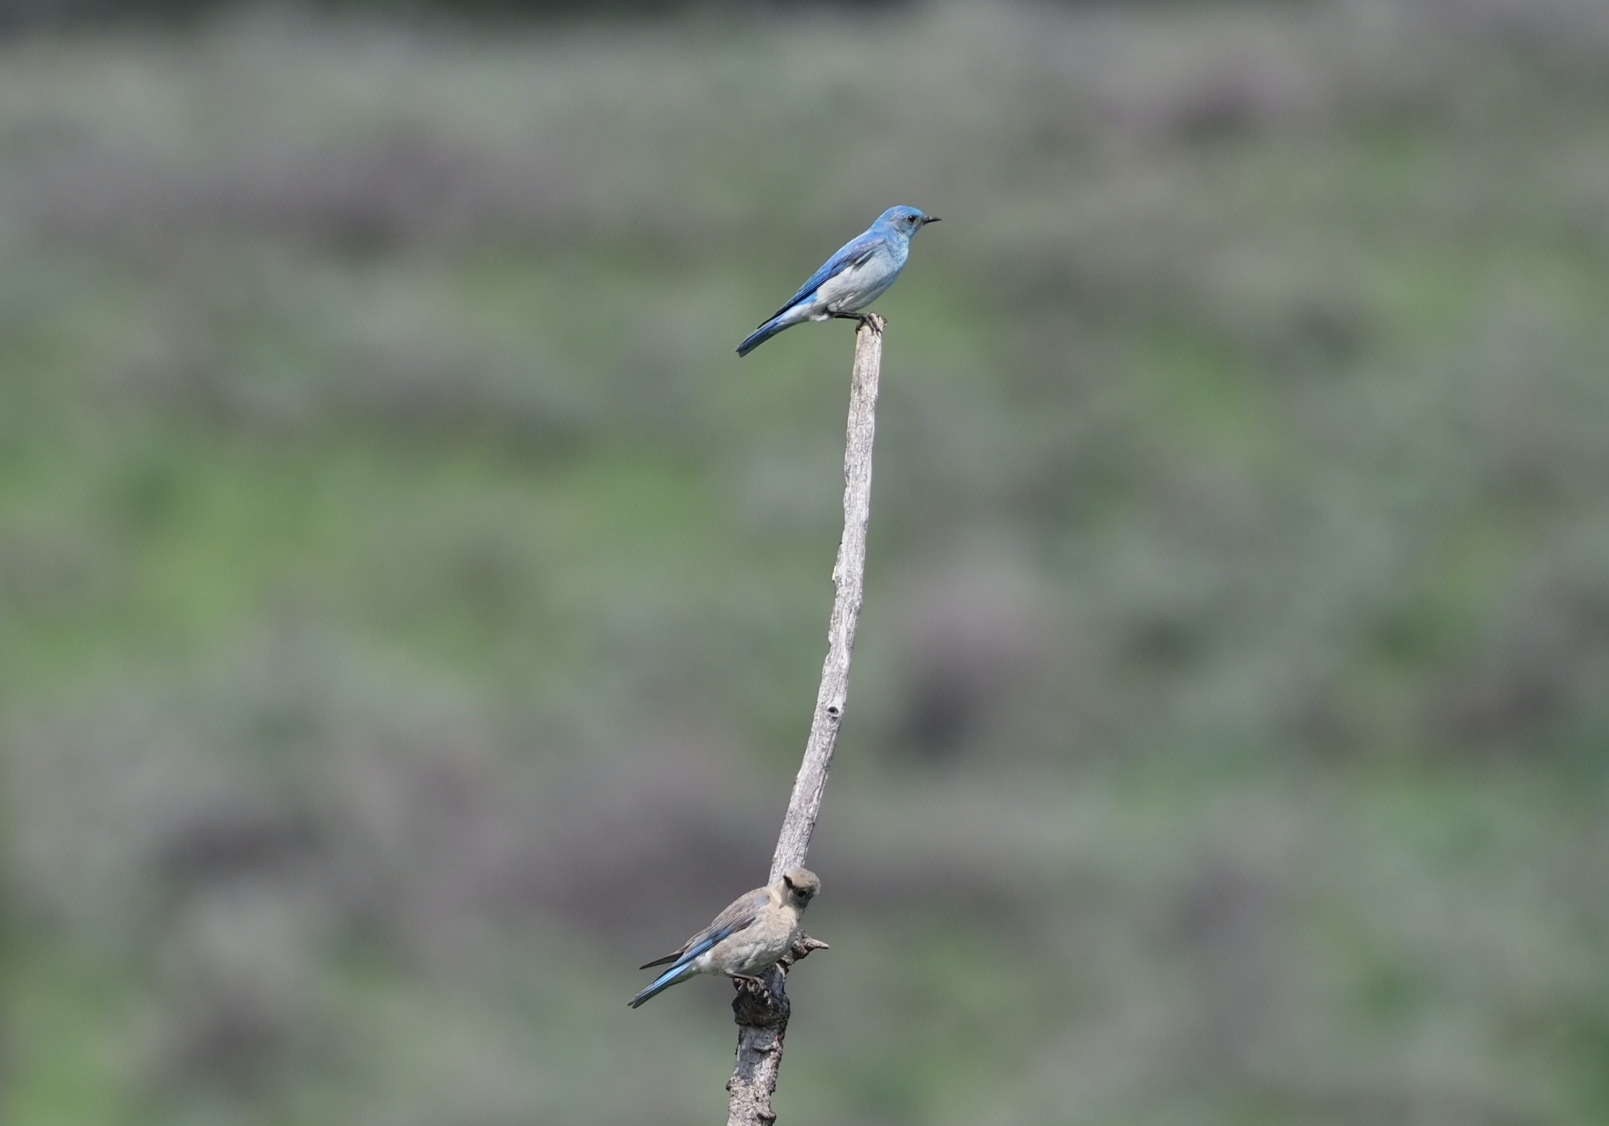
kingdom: Animalia
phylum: Chordata
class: Aves
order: Passeriformes
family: Turdidae
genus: Sialia
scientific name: Sialia currucoides
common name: Mountain bluebird
